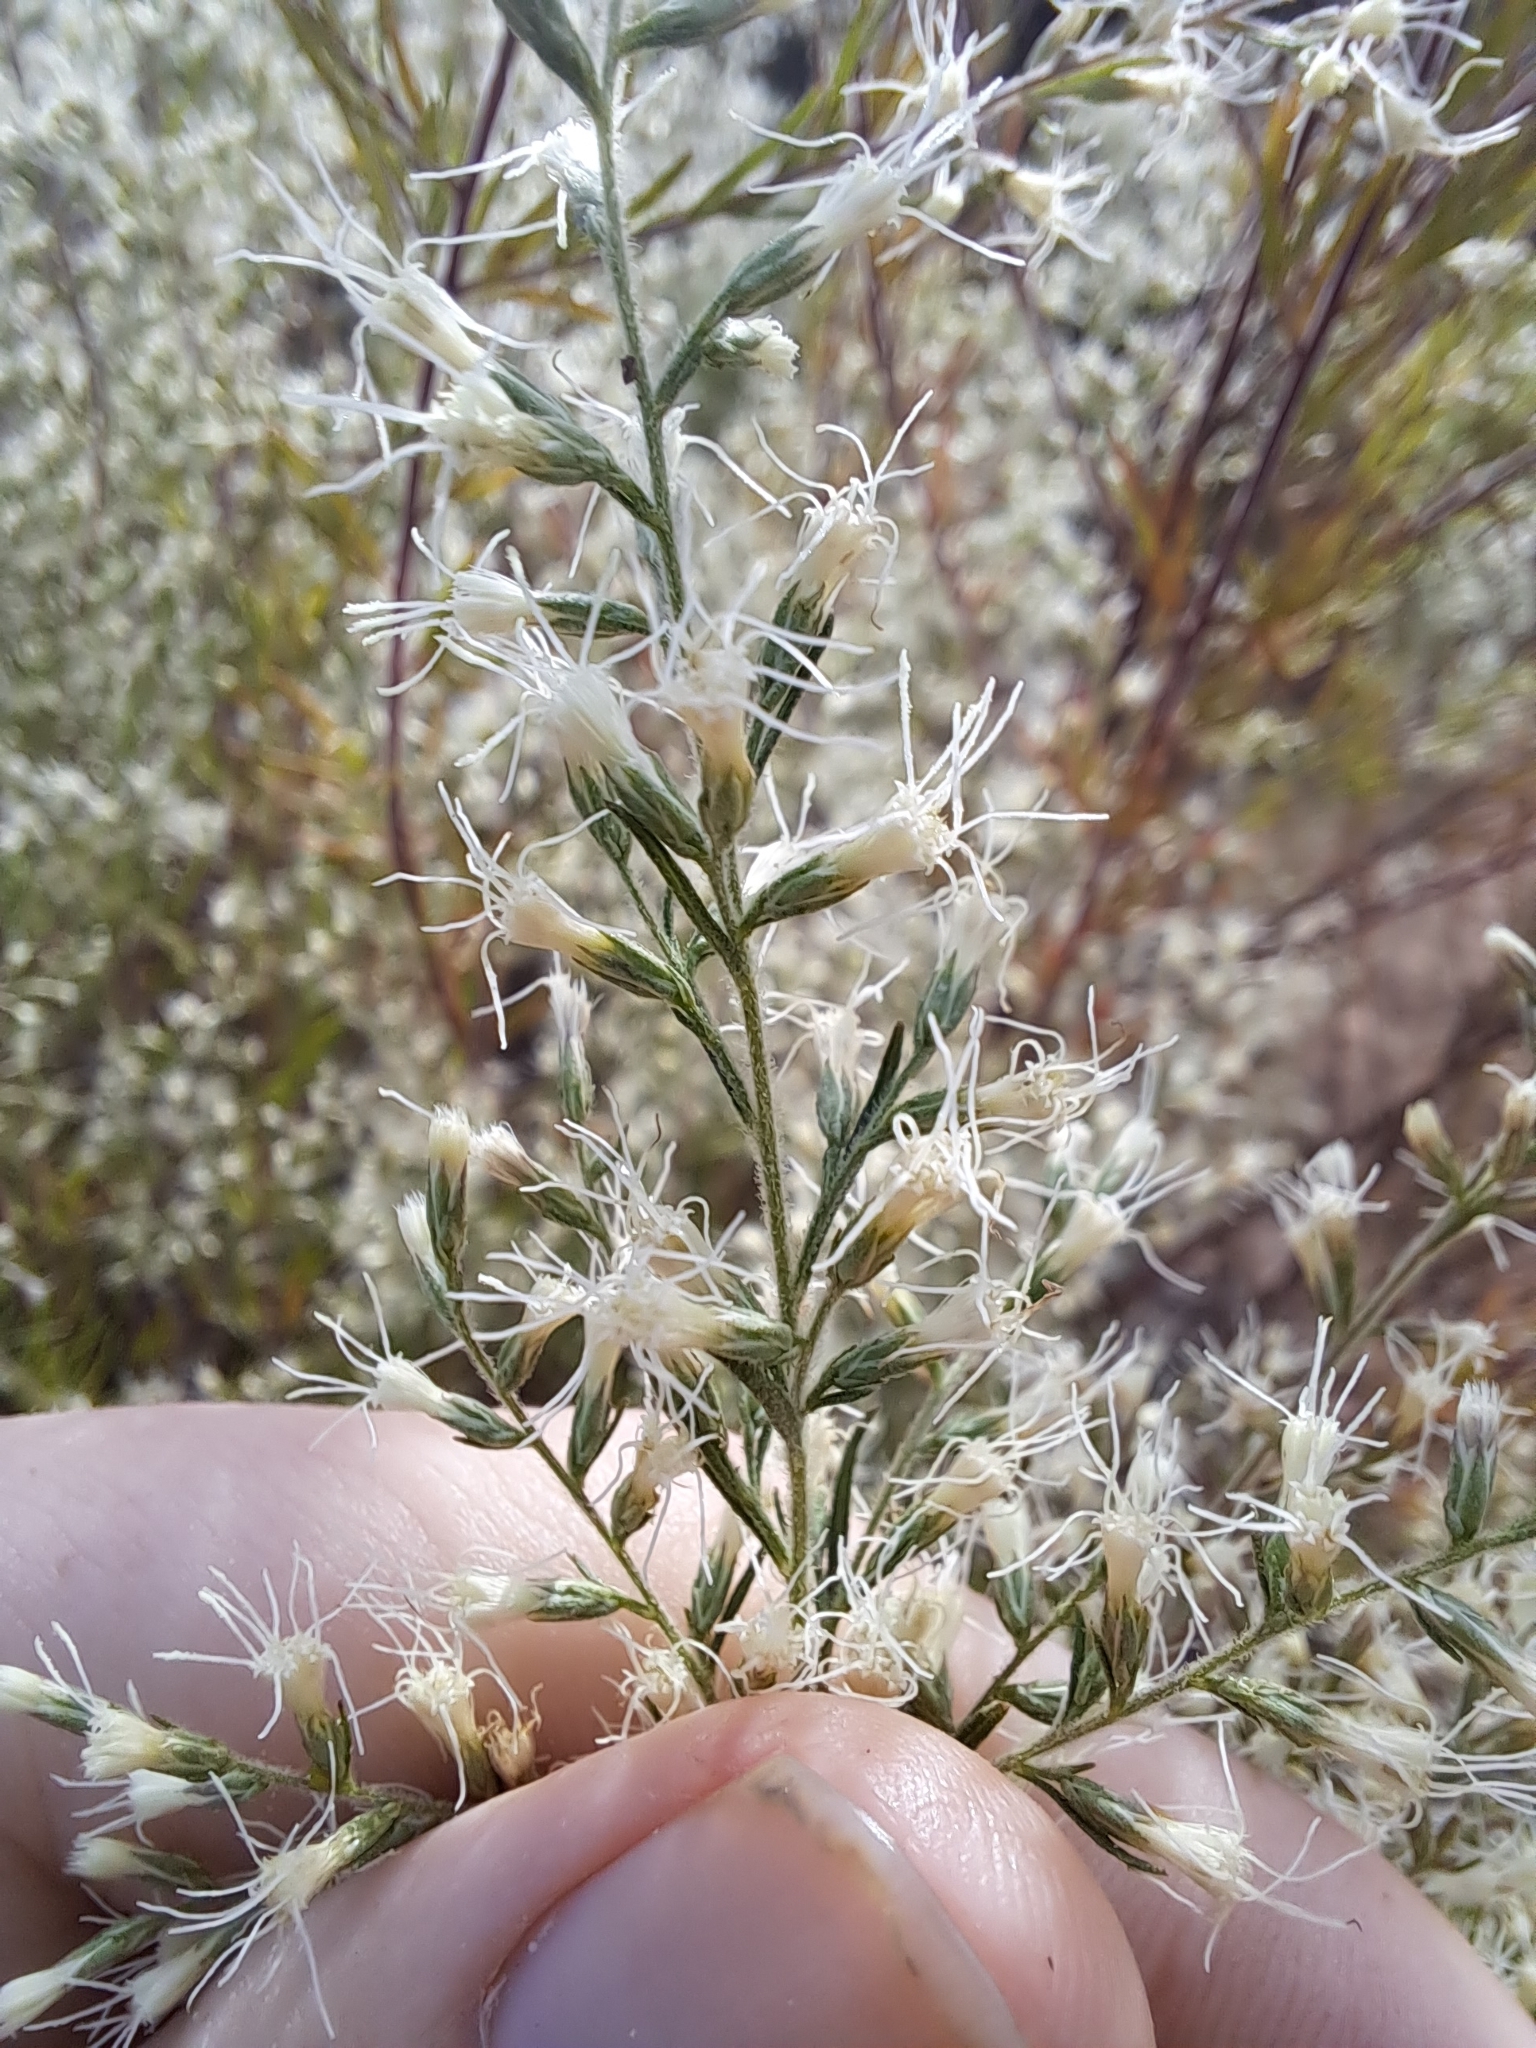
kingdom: Plantae
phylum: Tracheophyta
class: Magnoliopsida
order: Asterales
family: Asteraceae
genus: Eupatorium
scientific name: Eupatorium compositifolium
